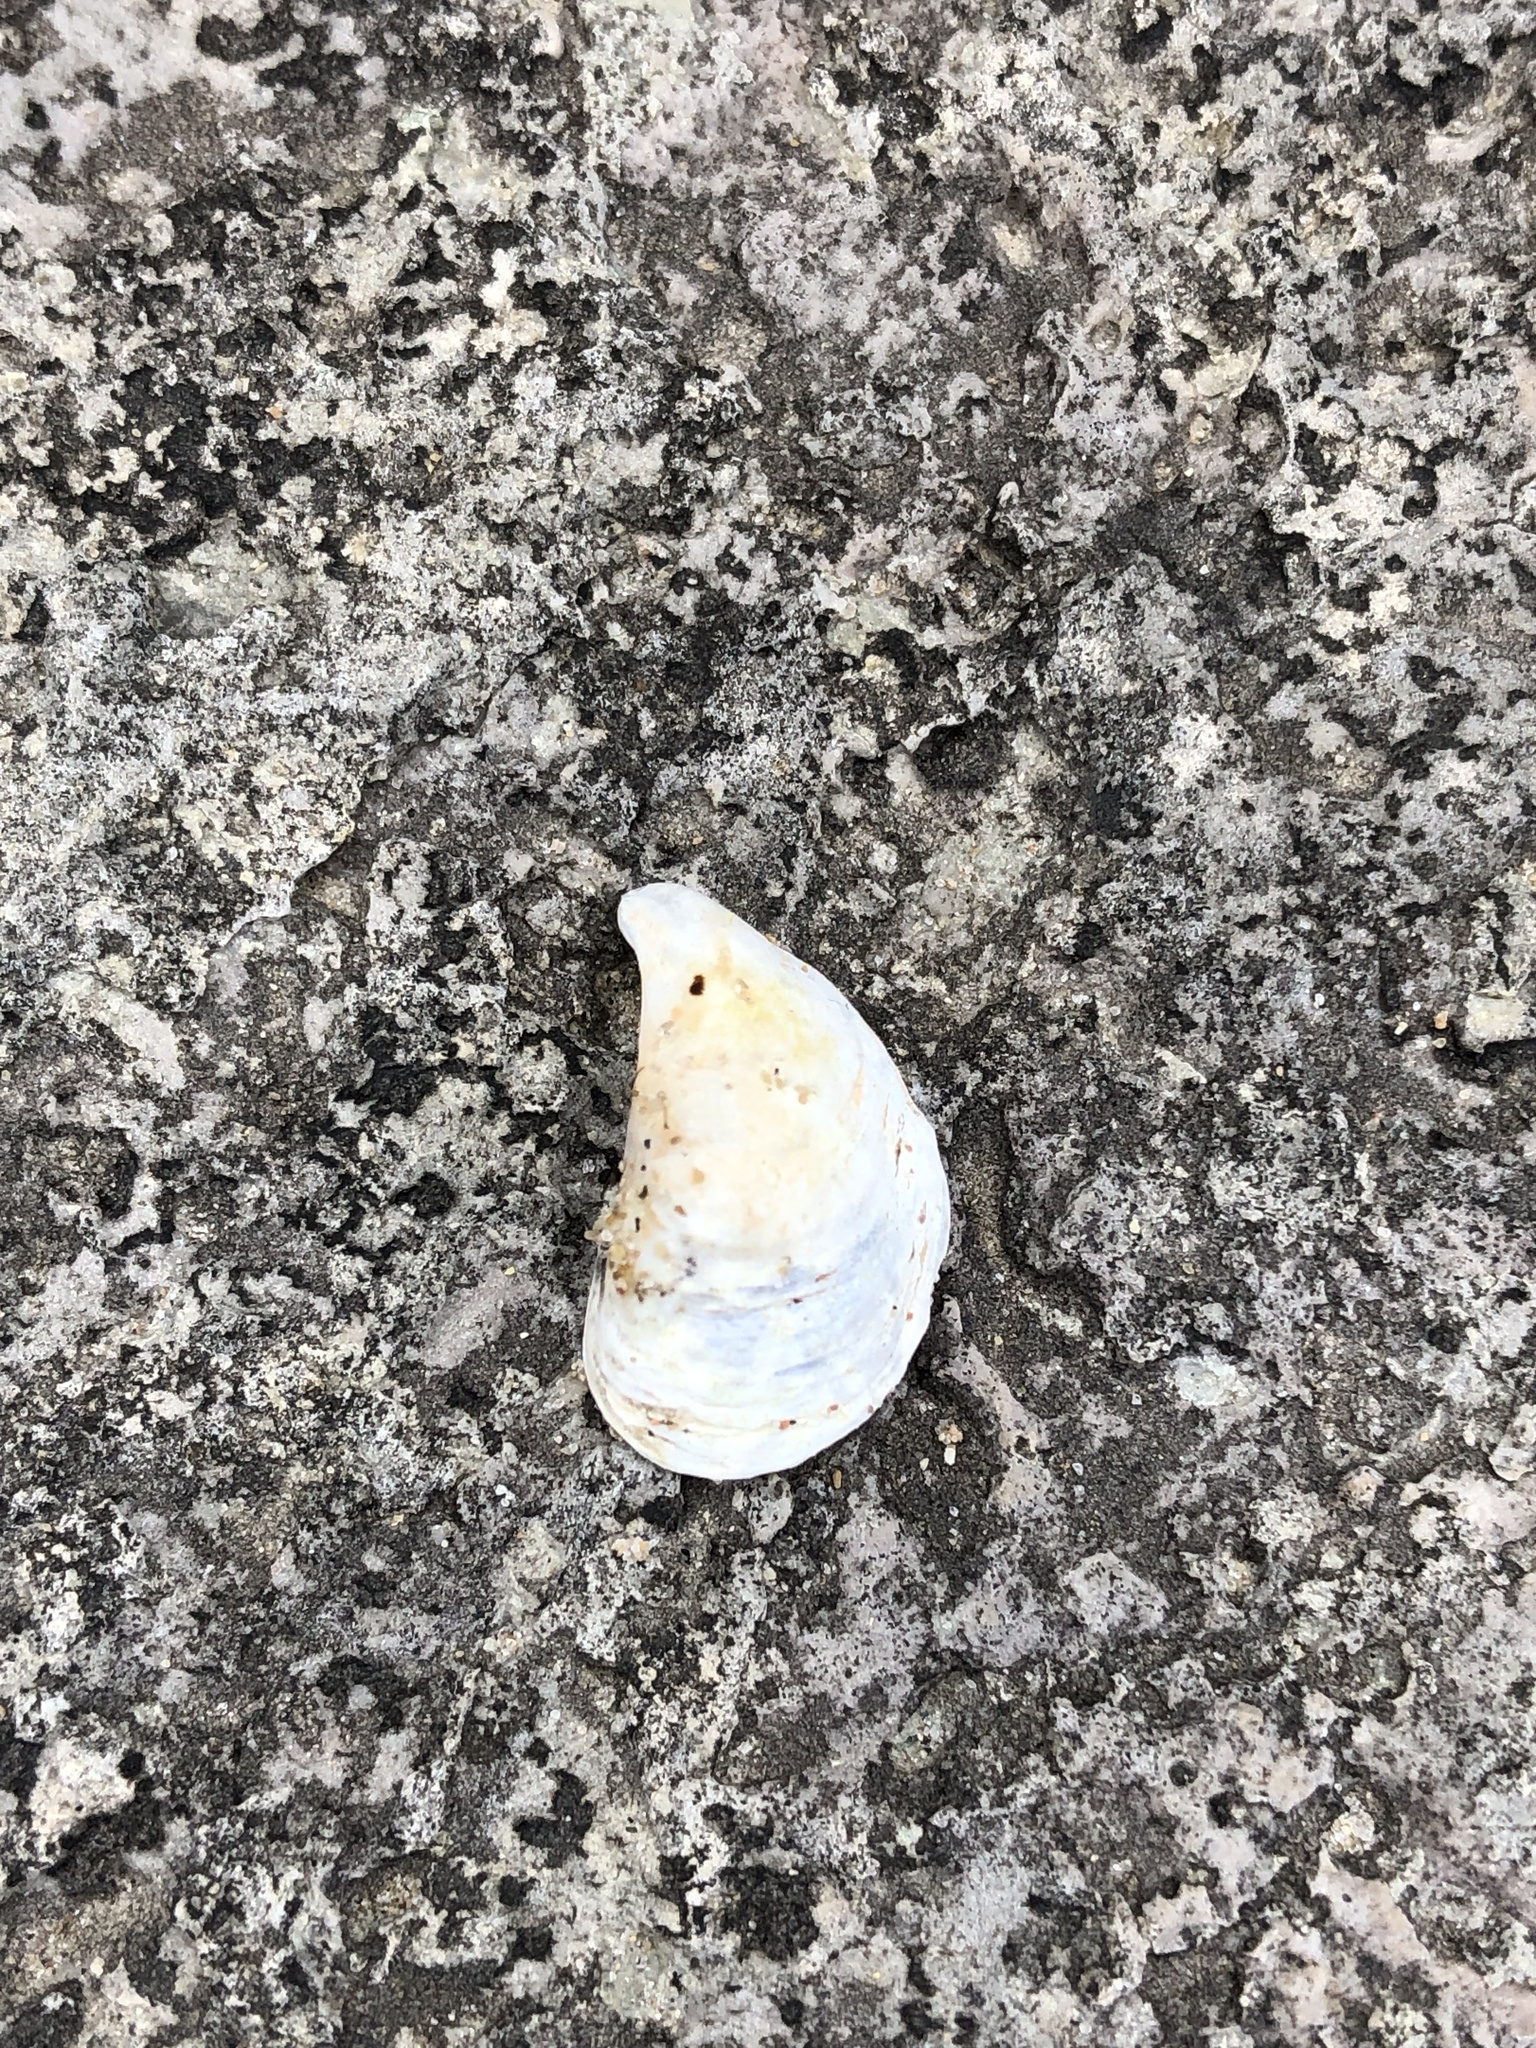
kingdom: Animalia
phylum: Mollusca
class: Bivalvia
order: Myida
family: Dreissenidae
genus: Dreissena
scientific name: Dreissena bugensis
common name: Quagga mussel
